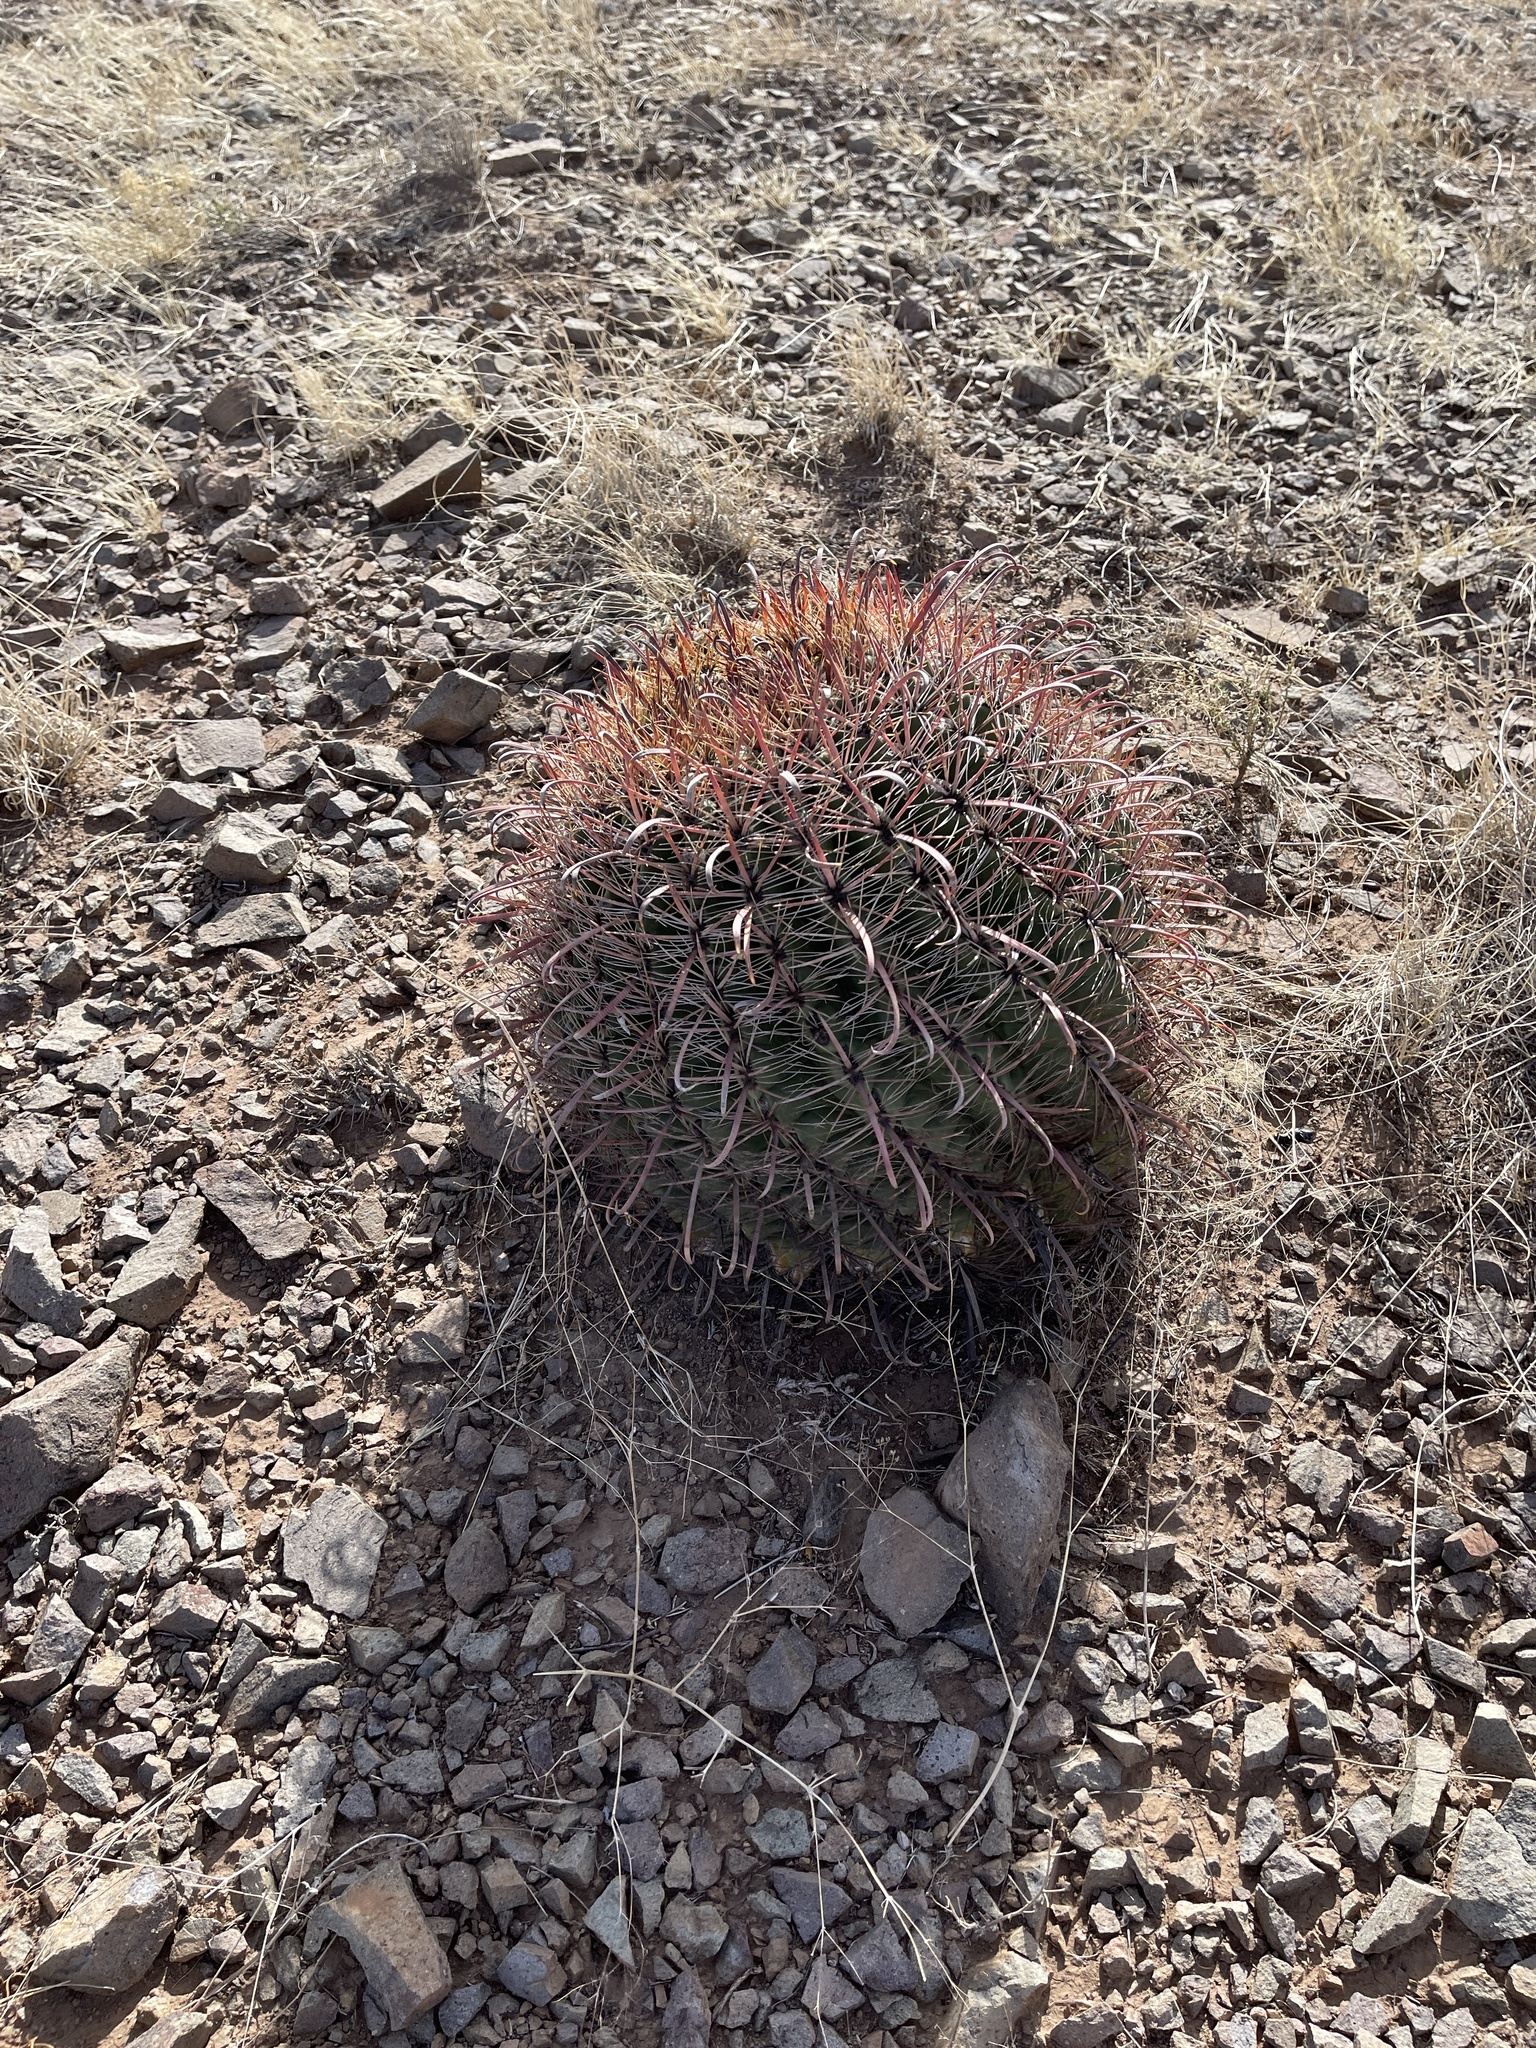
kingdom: Plantae
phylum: Tracheophyta
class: Magnoliopsida
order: Caryophyllales
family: Cactaceae
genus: Ferocactus
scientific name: Ferocactus wislizeni
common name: Candy barrel cactus
